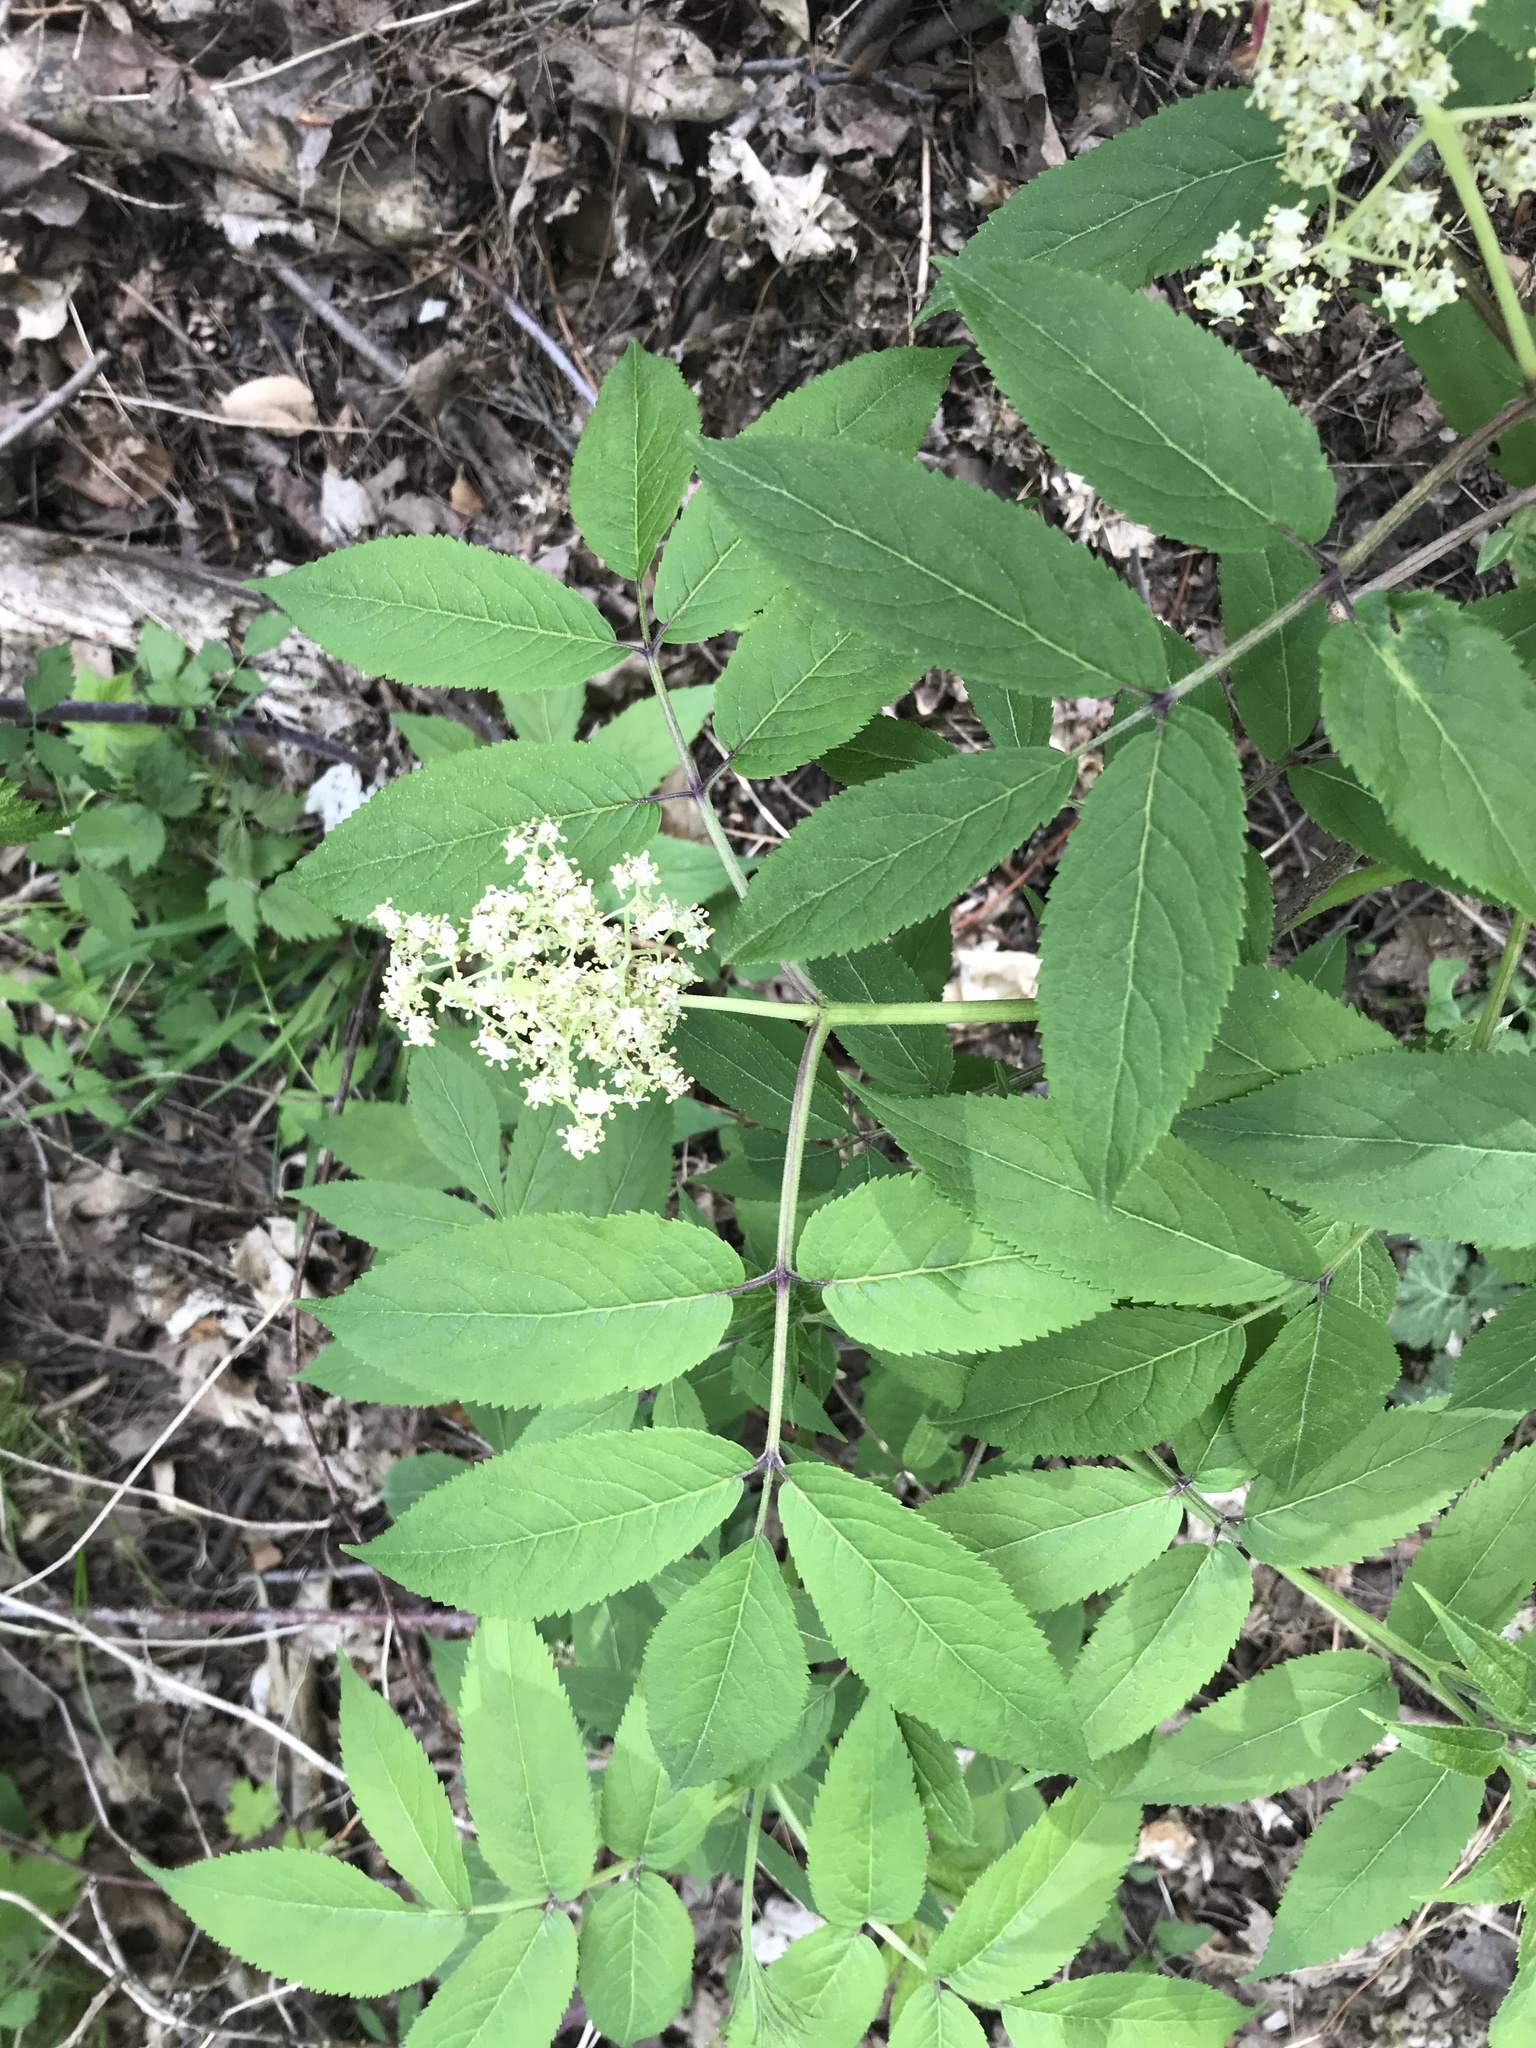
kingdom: Plantae
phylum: Tracheophyta
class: Magnoliopsida
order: Dipsacales
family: Viburnaceae
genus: Sambucus
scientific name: Sambucus racemosa
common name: Red-berried elder
